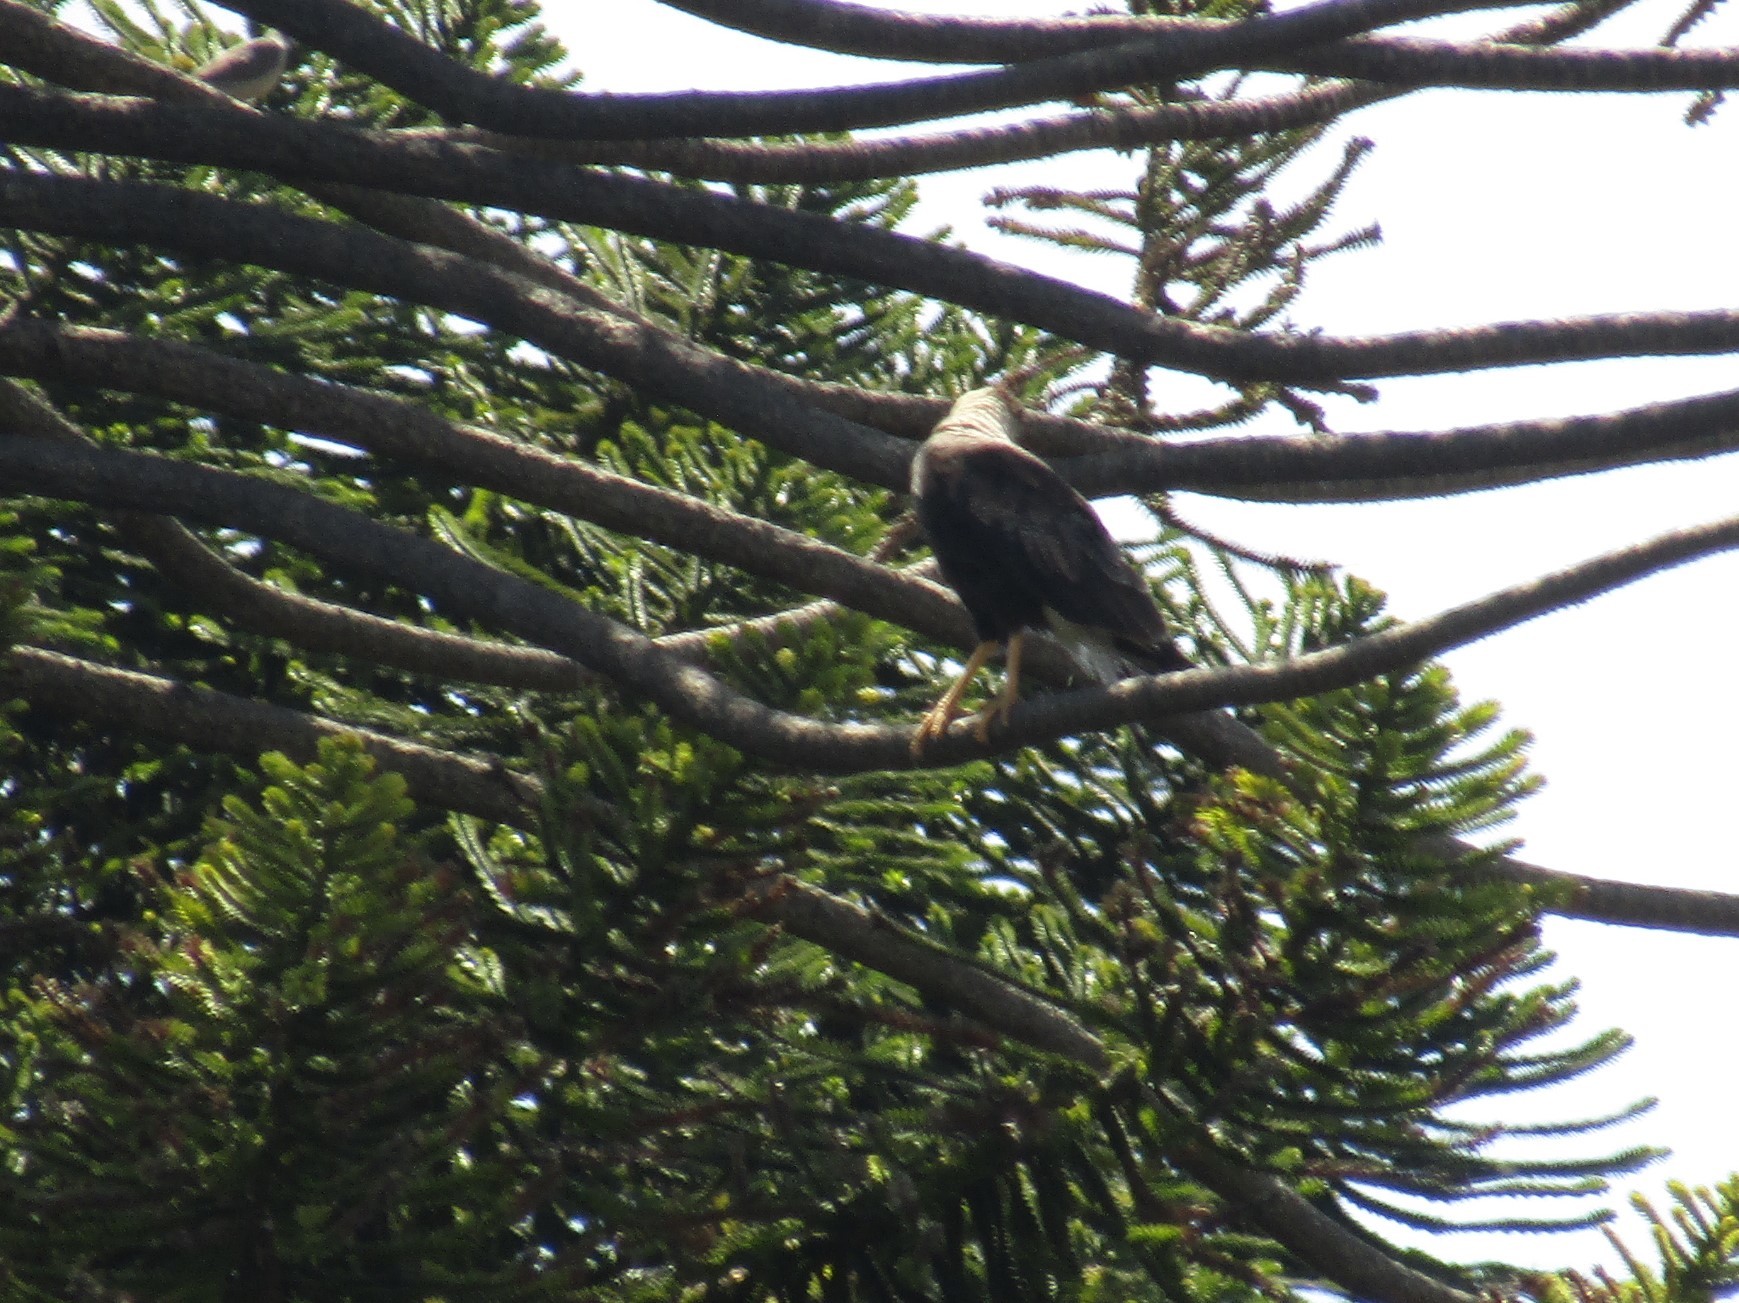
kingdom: Animalia
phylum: Chordata
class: Aves
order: Falconiformes
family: Falconidae
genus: Caracara
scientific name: Caracara plancus
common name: Southern caracara
